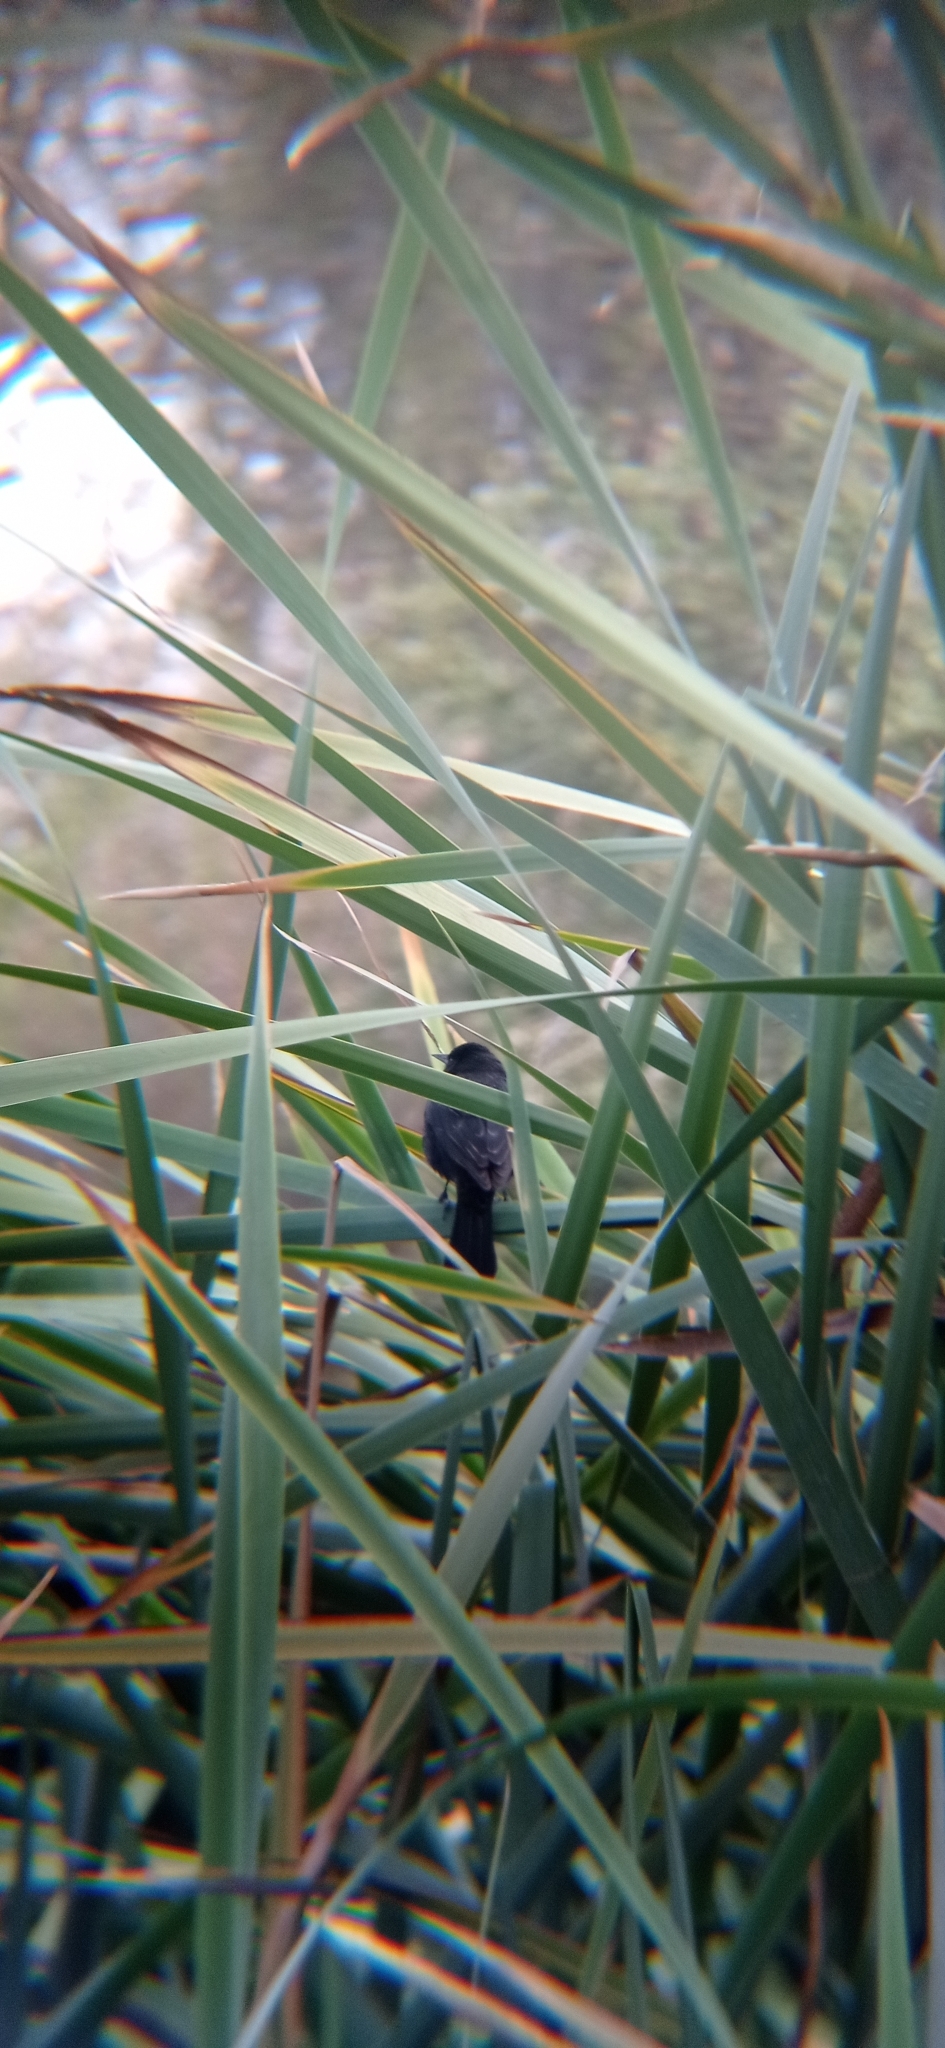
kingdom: Animalia
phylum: Chordata
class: Aves
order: Passeriformes
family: Icteridae
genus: Agelasticus
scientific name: Agelasticus thilius
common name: Yellow-winged blackbird
